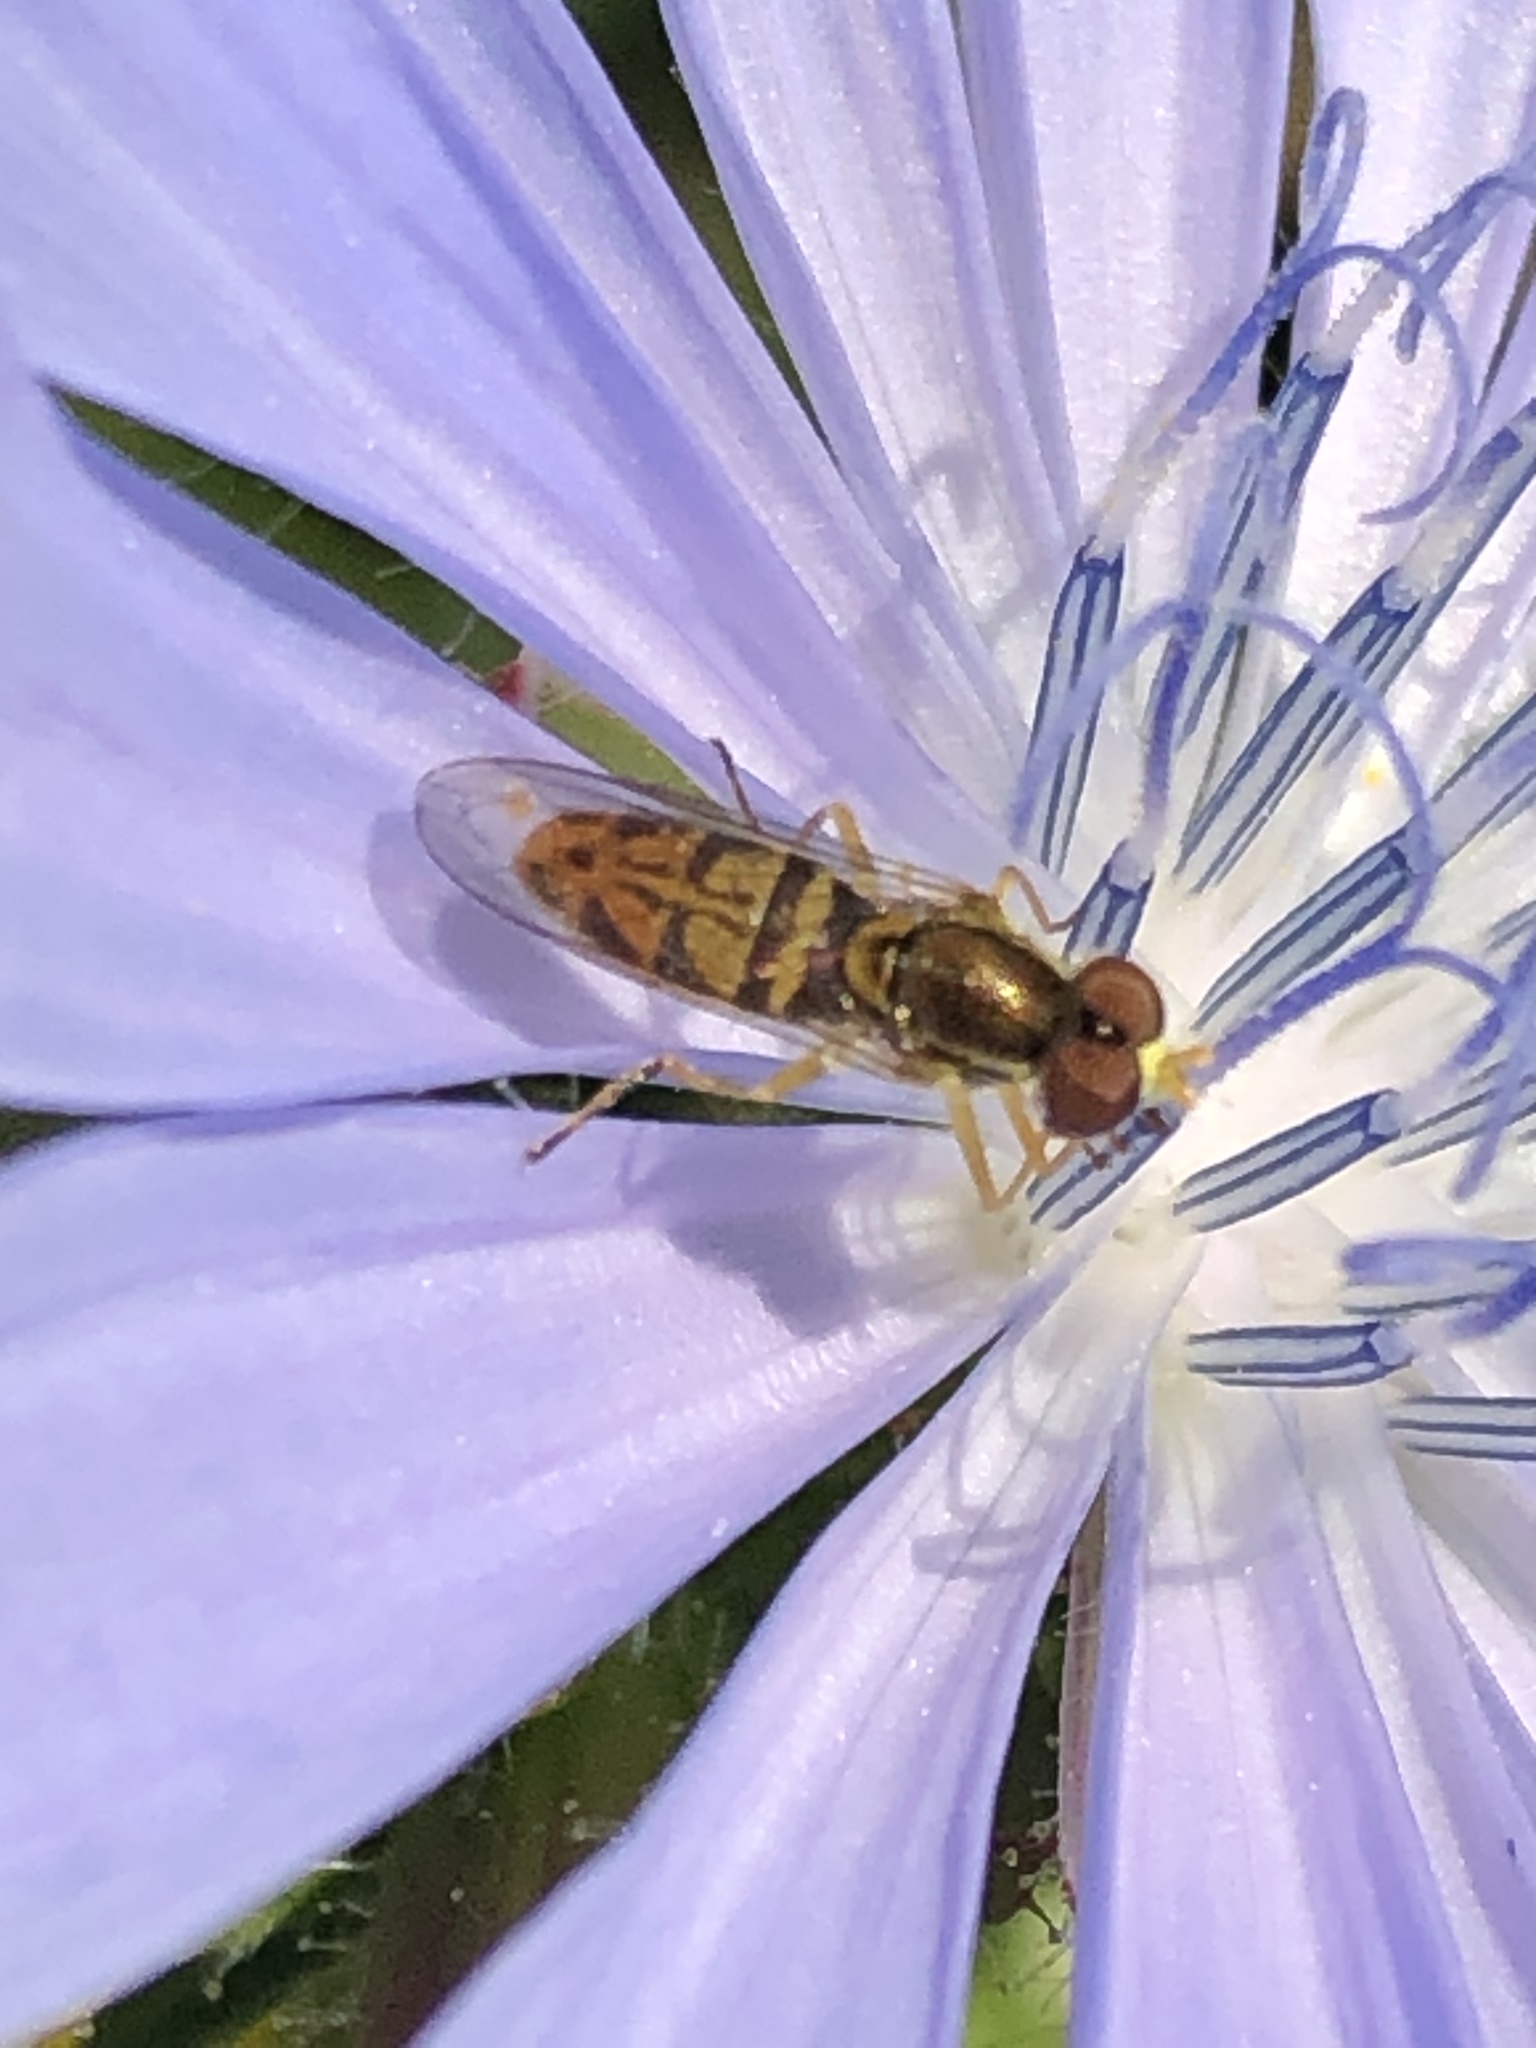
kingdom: Animalia
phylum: Arthropoda
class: Insecta
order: Diptera
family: Syrphidae
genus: Toxomerus
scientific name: Toxomerus marginatus
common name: Syrphid fly
